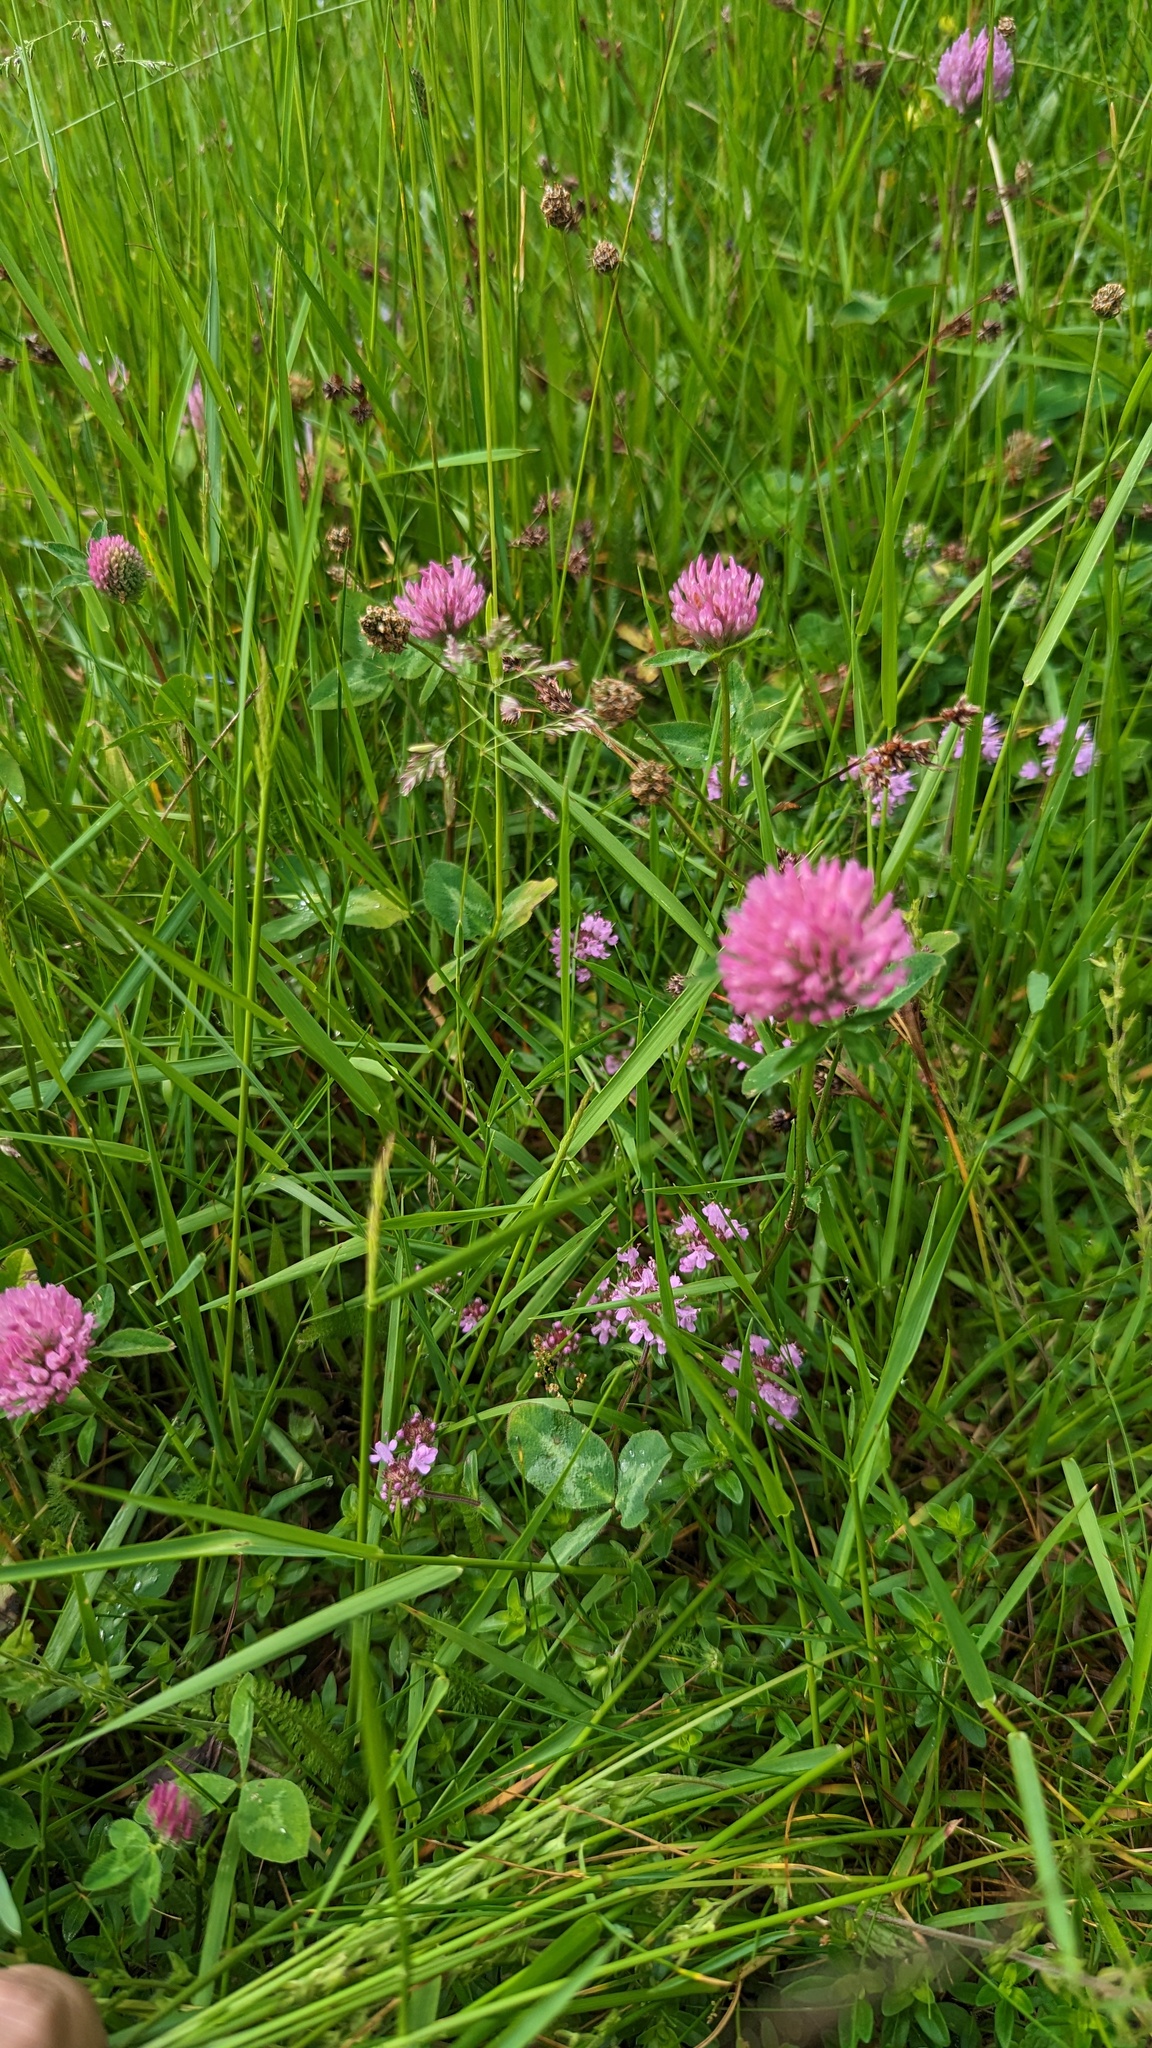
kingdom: Plantae
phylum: Tracheophyta
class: Magnoliopsida
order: Fabales
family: Fabaceae
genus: Trifolium
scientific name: Trifolium pratense
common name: Red clover
